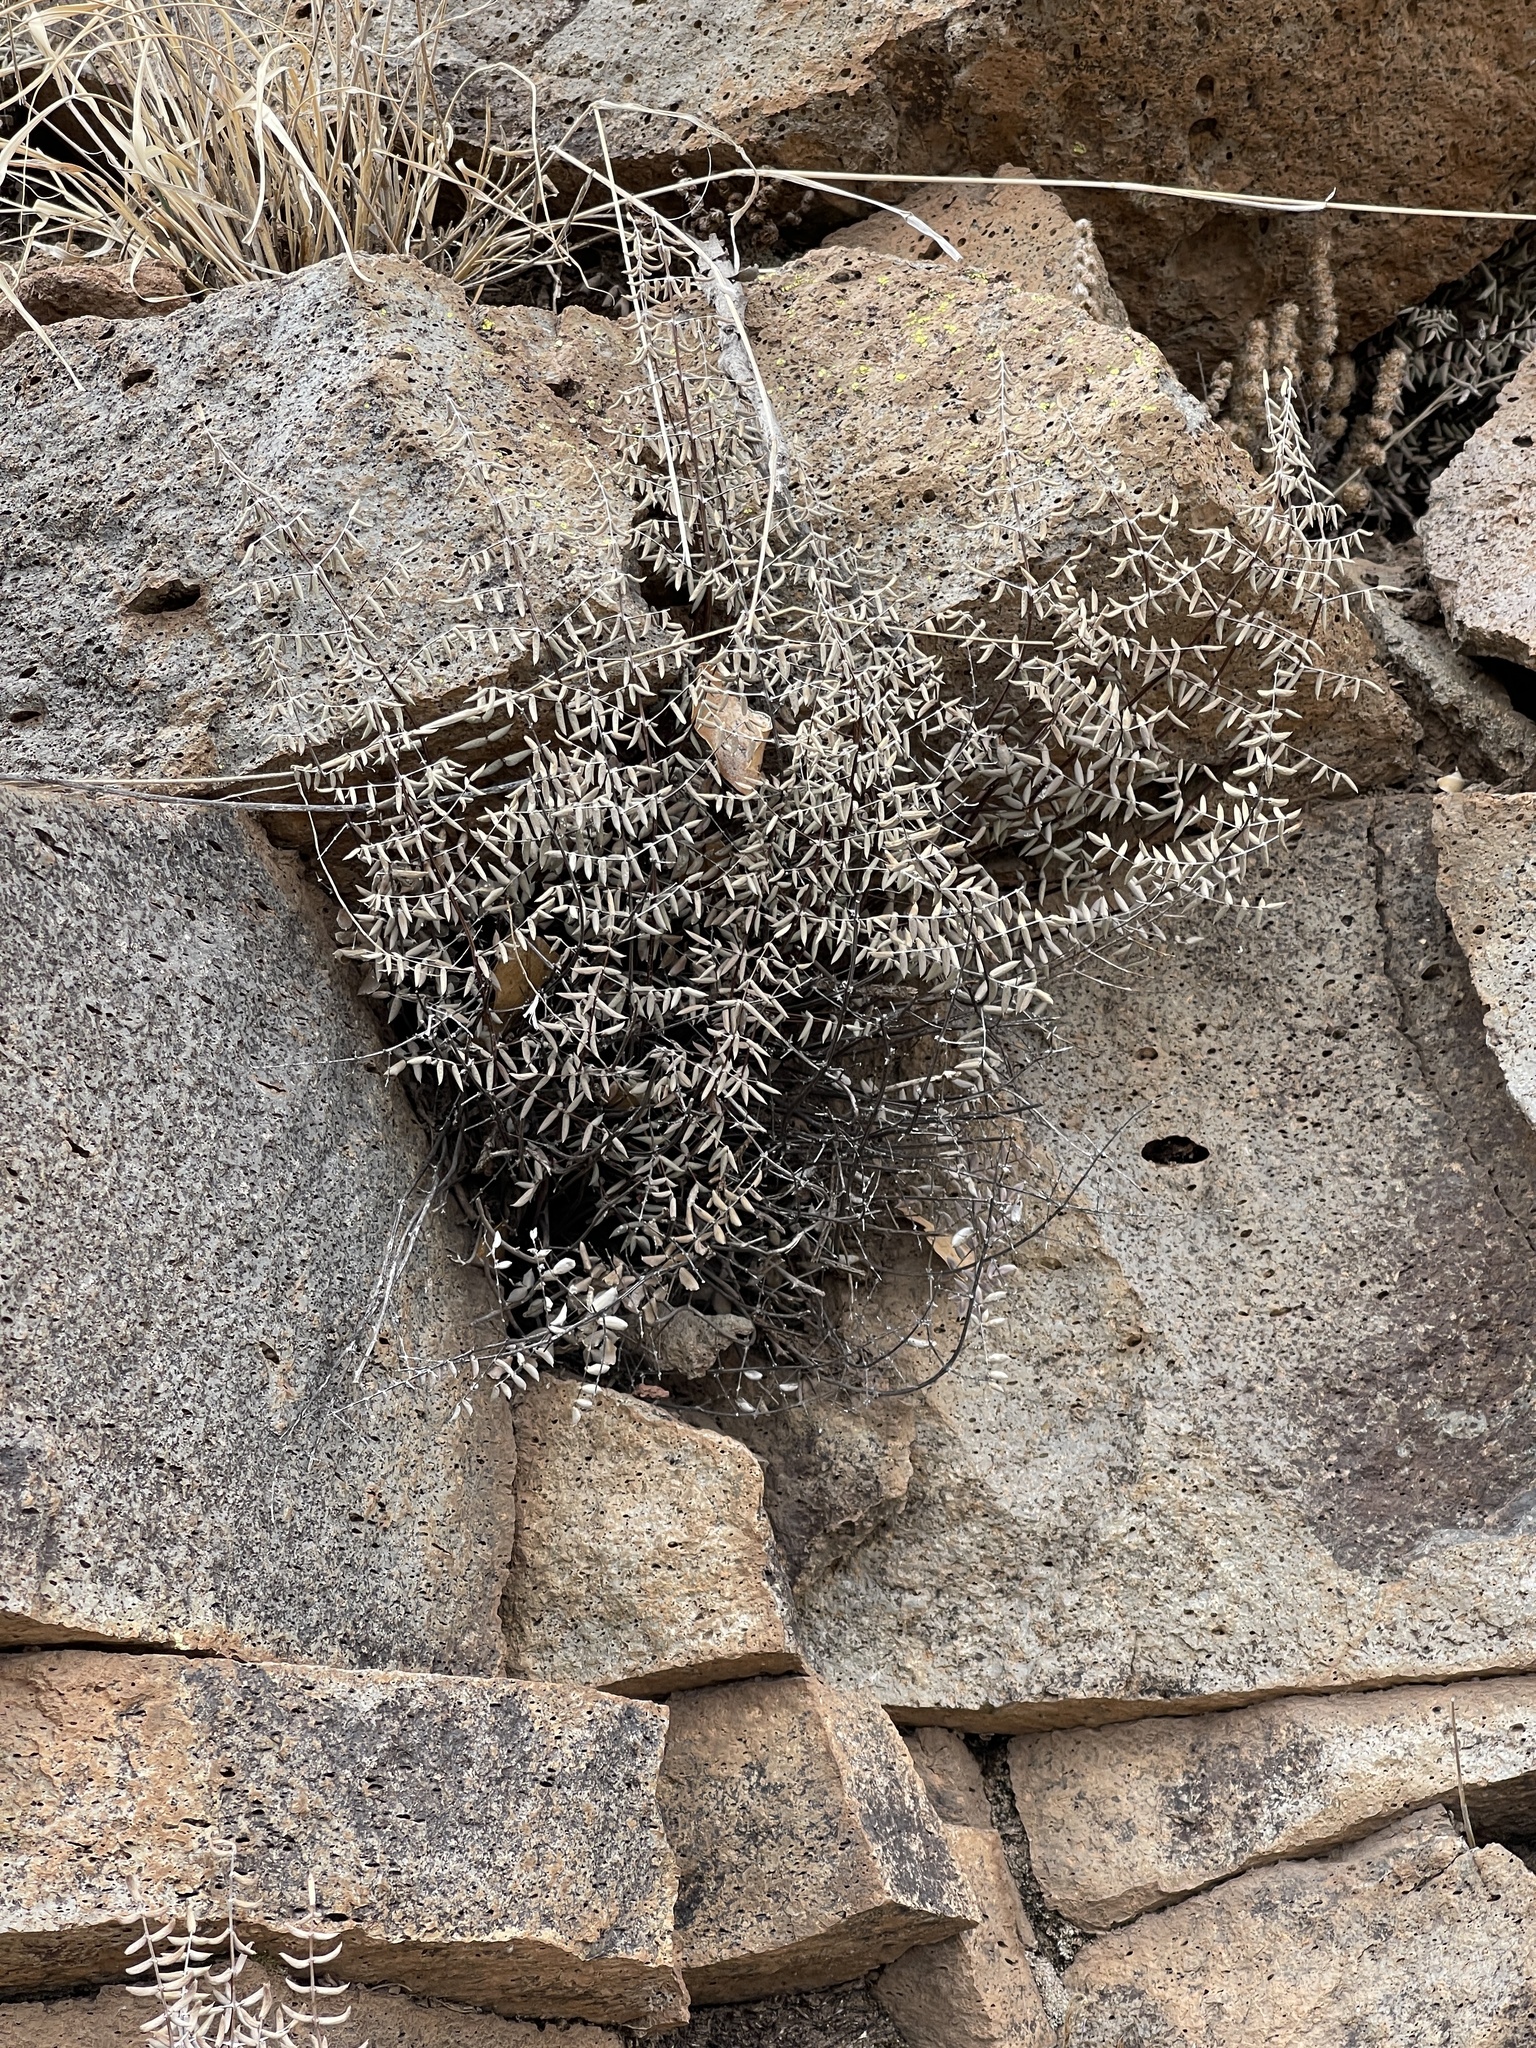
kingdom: Plantae
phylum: Tracheophyta
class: Polypodiopsida
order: Polypodiales
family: Pteridaceae
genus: Pellaea
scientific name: Pellaea truncata
